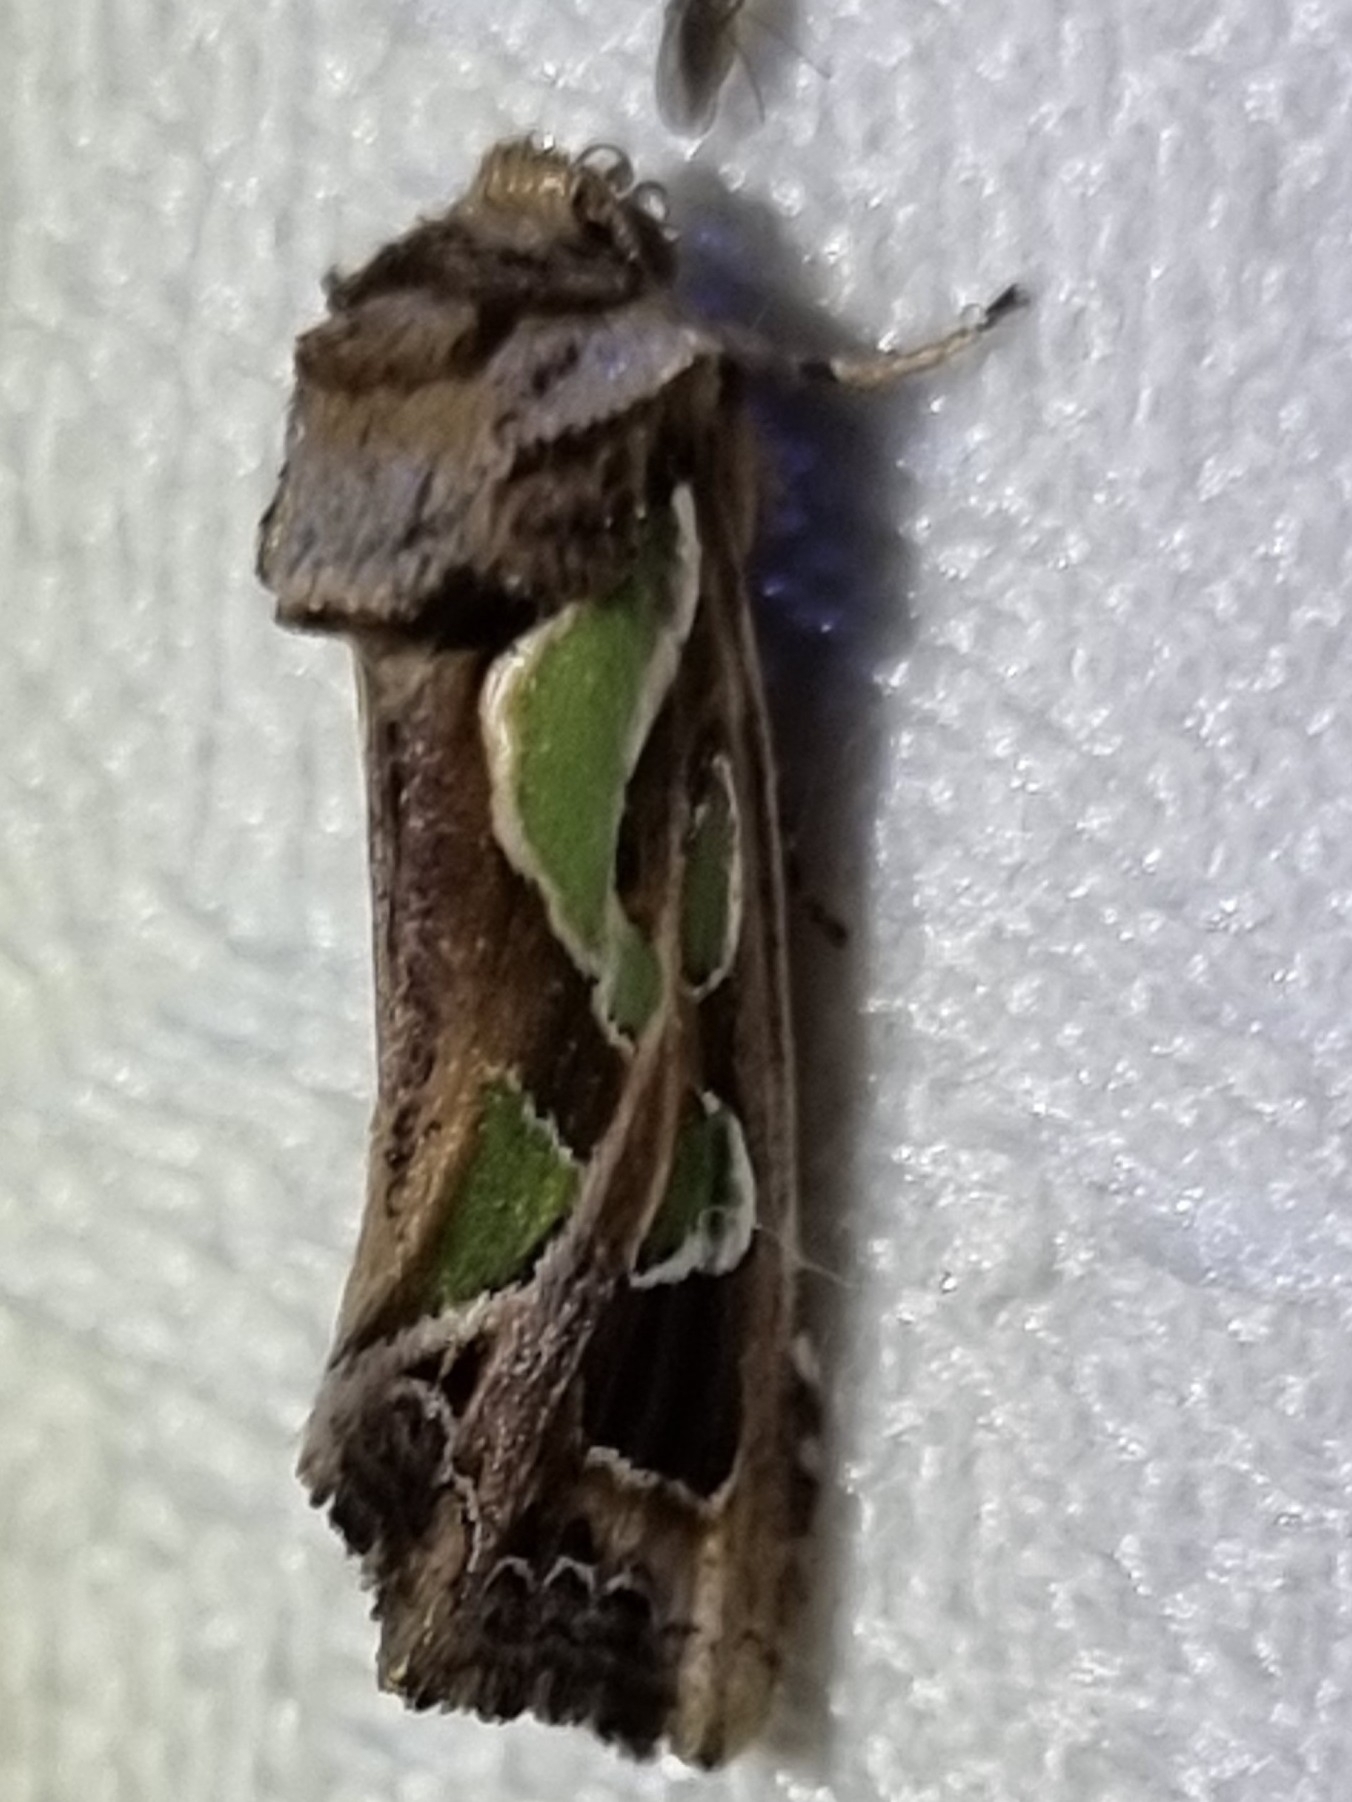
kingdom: Animalia
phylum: Arthropoda
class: Insecta
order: Lepidoptera
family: Noctuidae
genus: Cosmodes
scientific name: Cosmodes elegans
